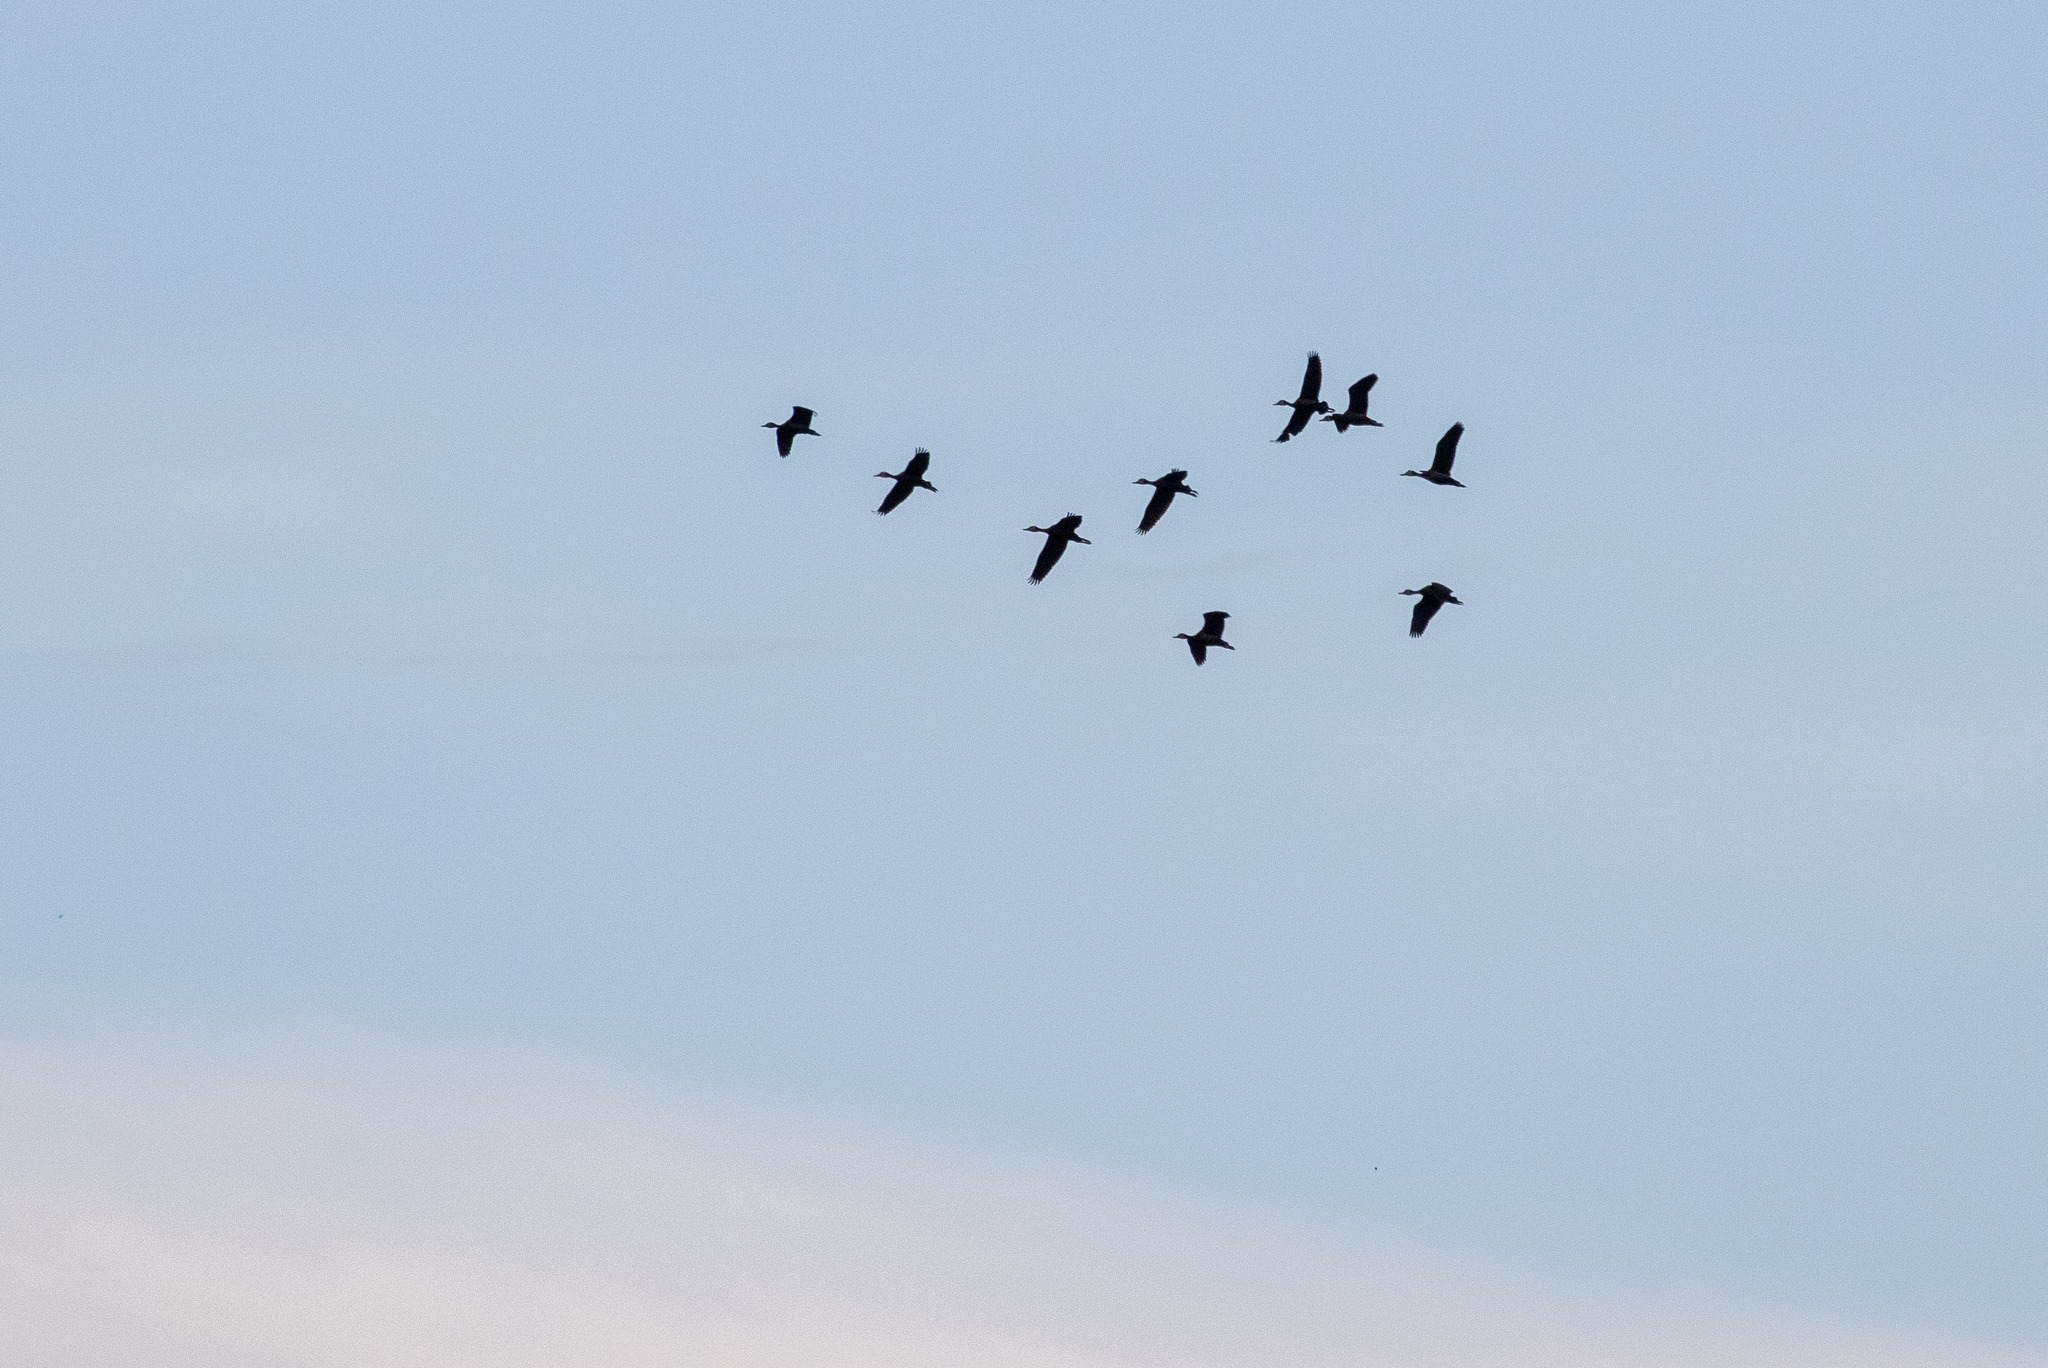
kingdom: Animalia
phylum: Chordata
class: Aves
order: Anseriformes
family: Anatidae
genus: Dendrocygna
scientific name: Dendrocygna viduata
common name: White-faced whistling duck
